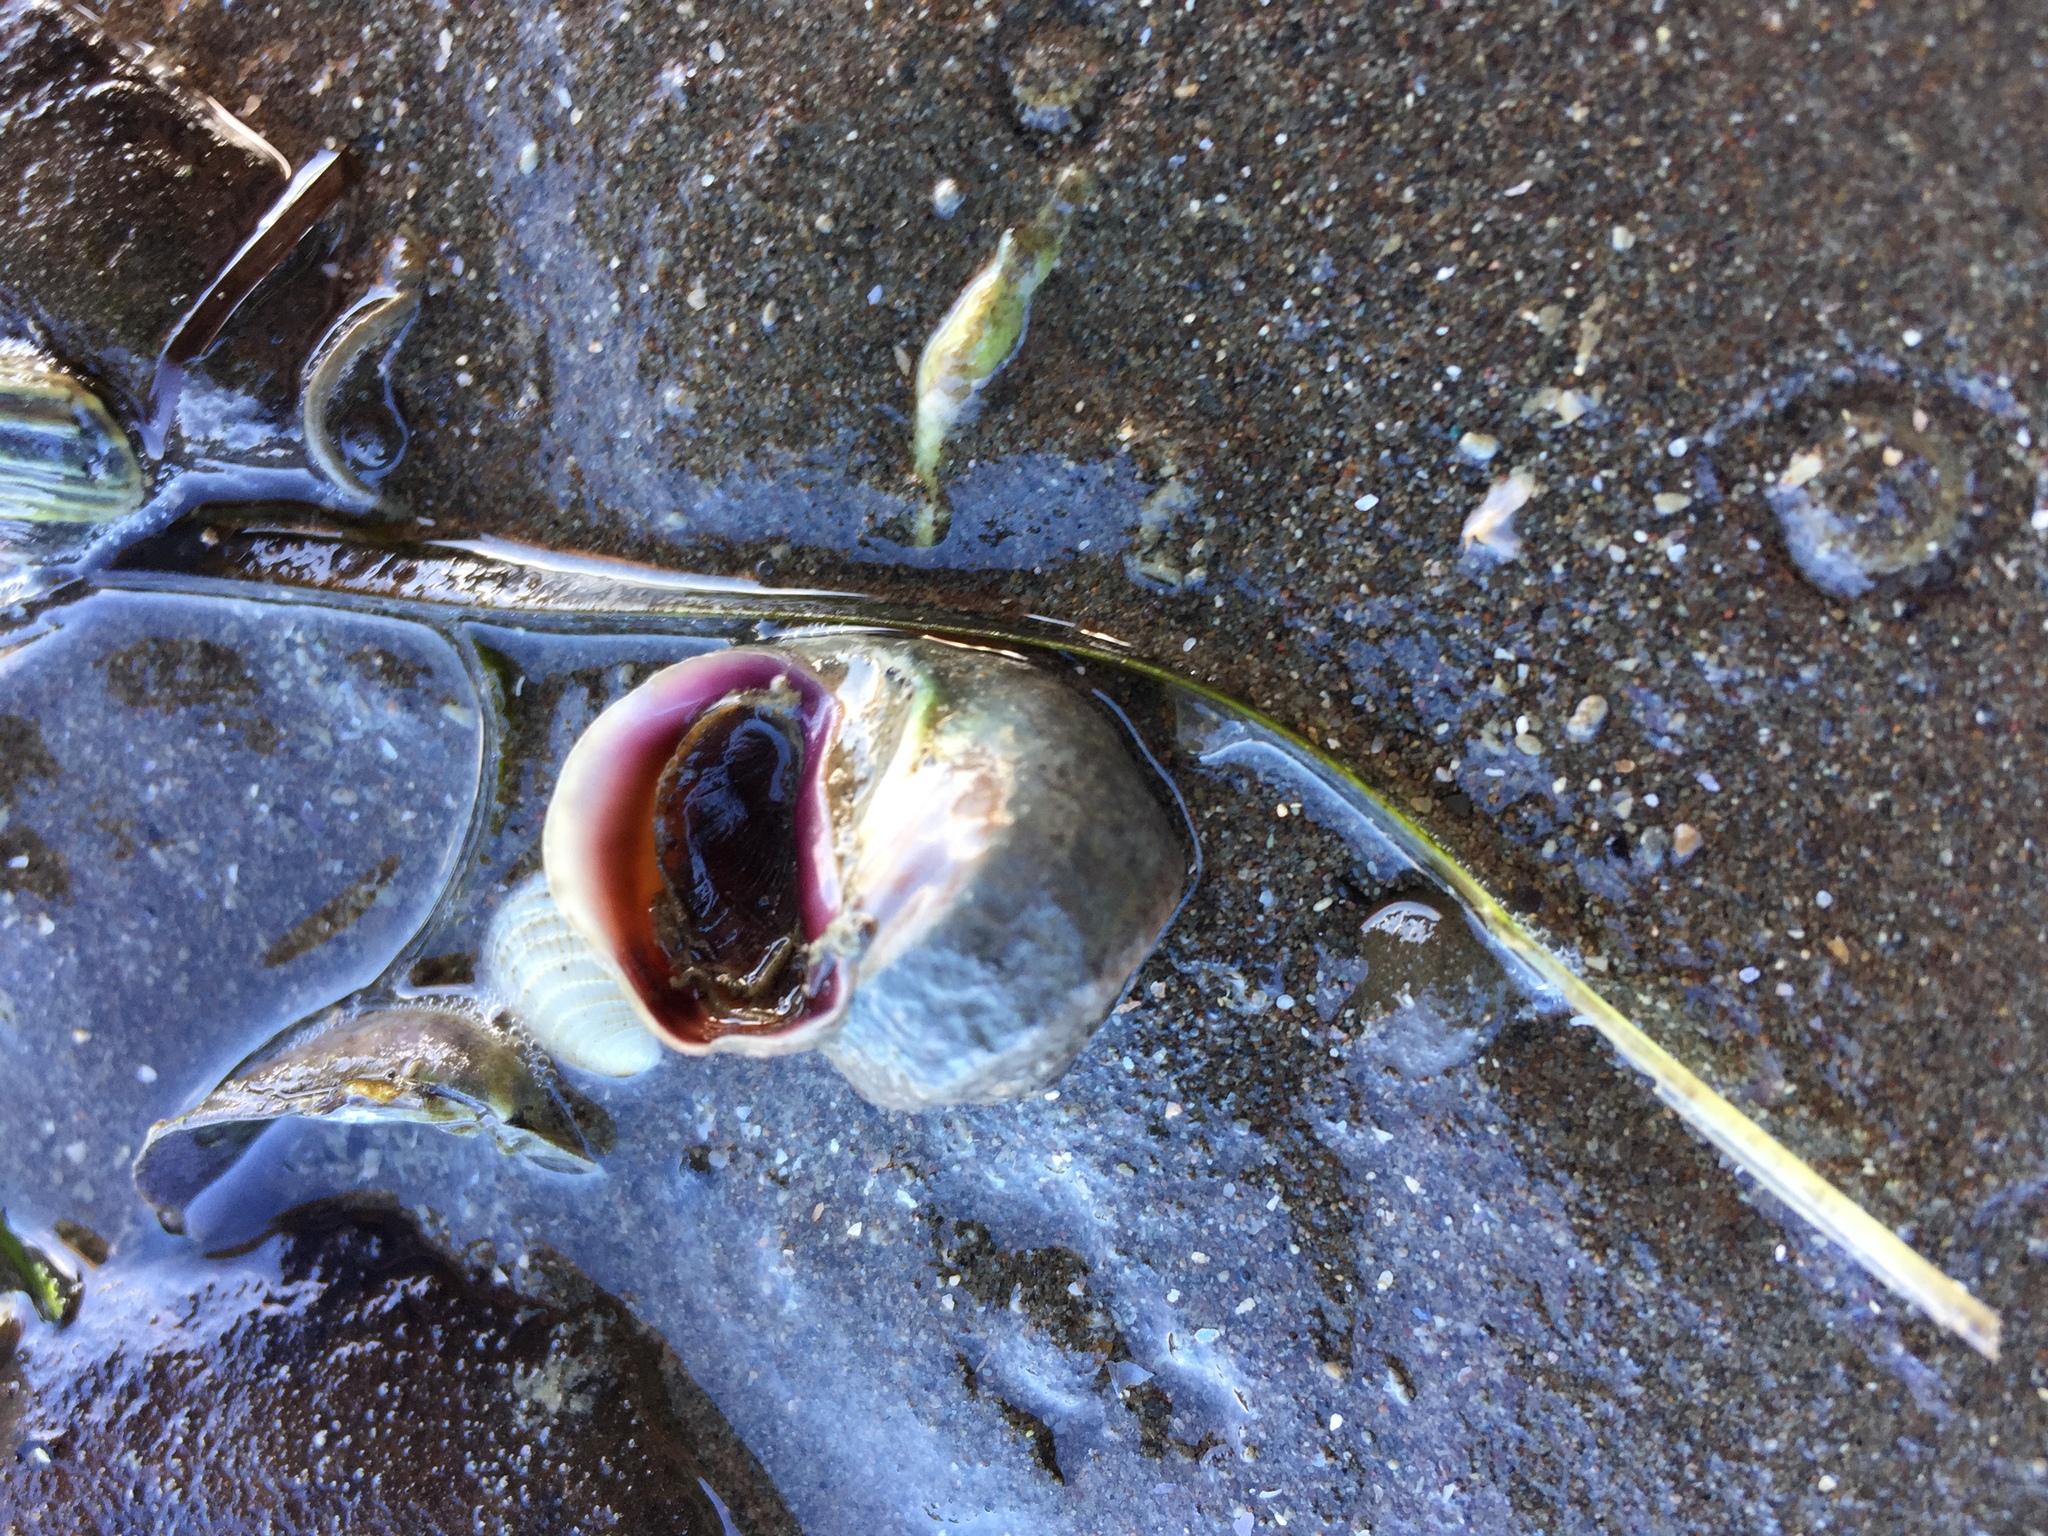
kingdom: Animalia
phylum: Mollusca
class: Gastropoda
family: Amphibolidae
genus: Amphibola
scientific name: Amphibola crenata
